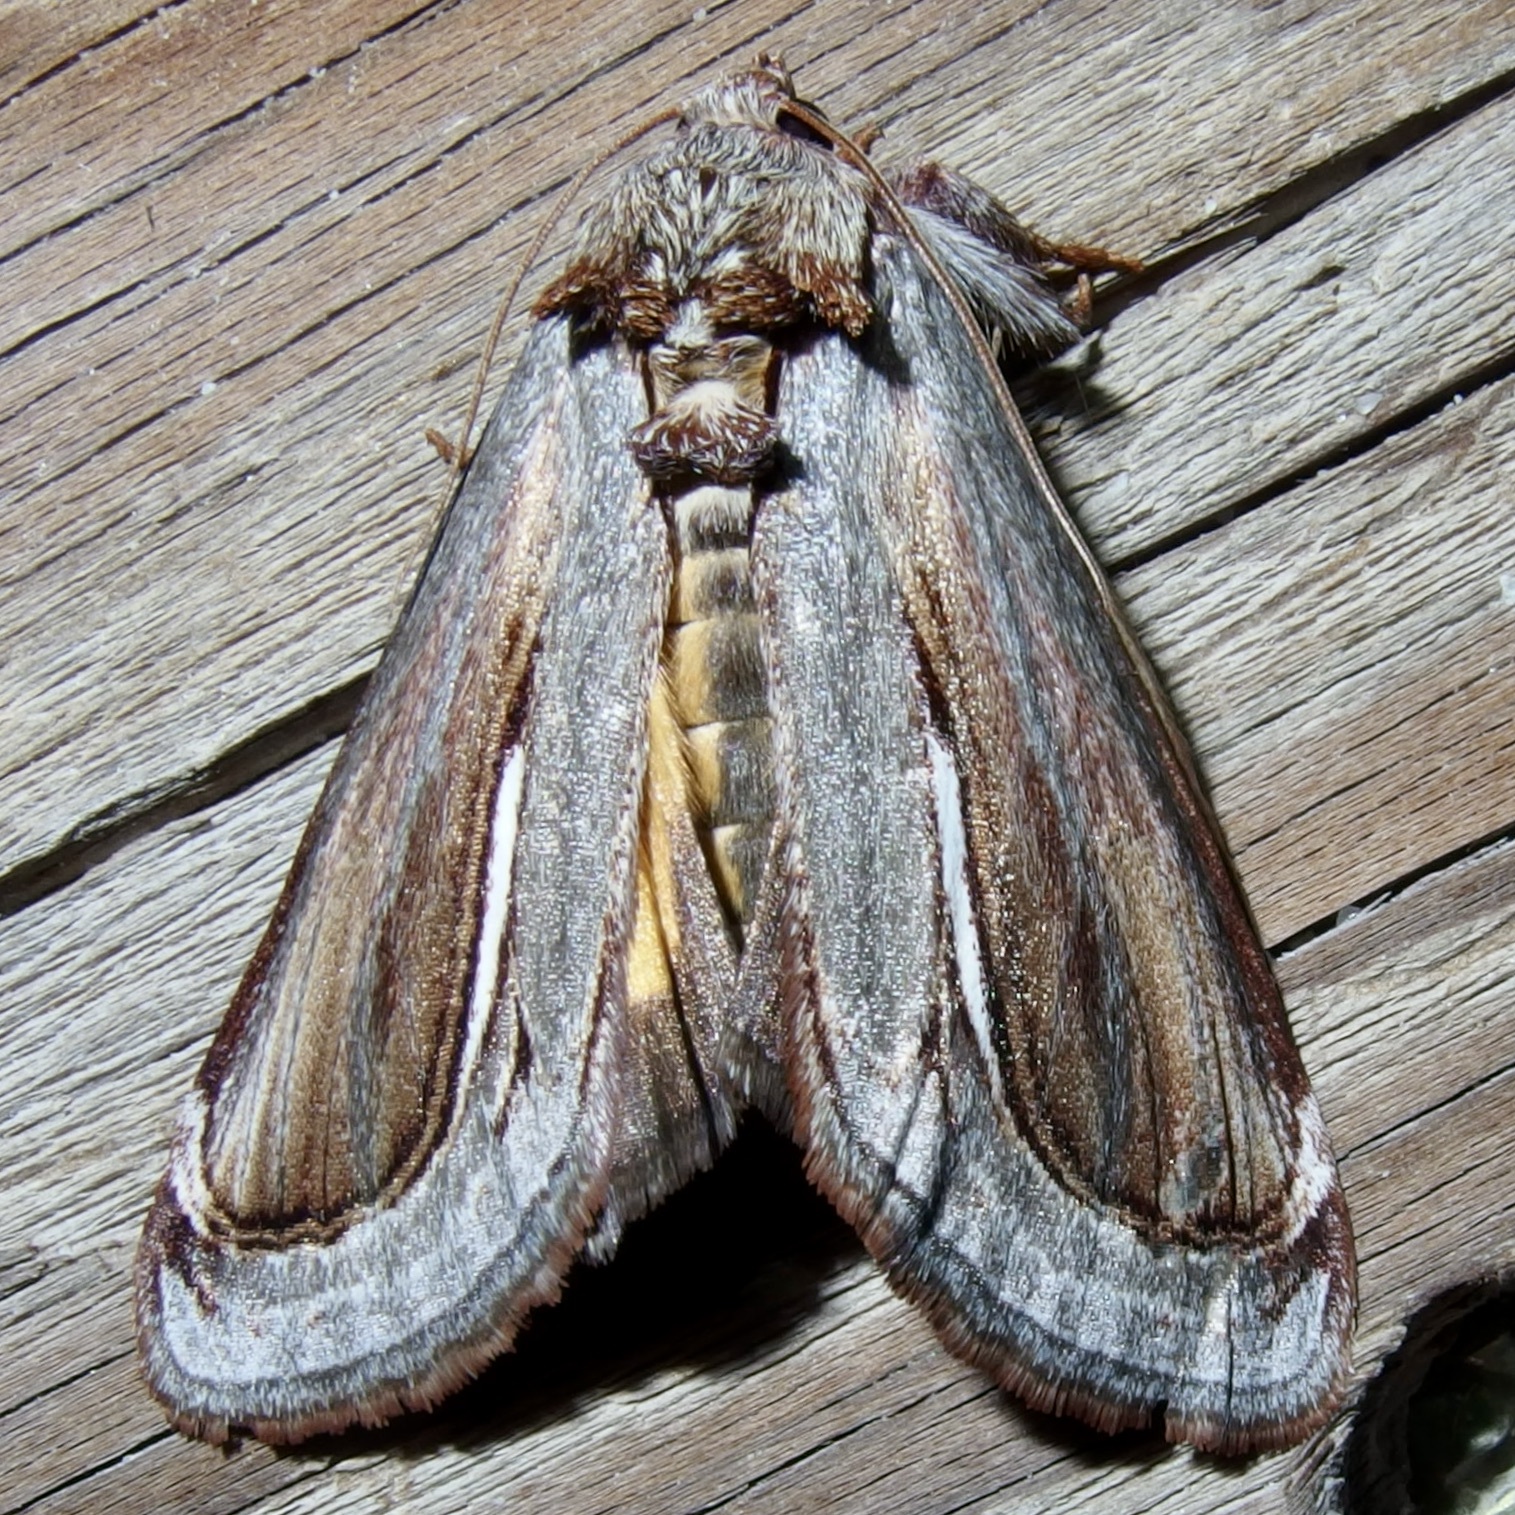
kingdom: Animalia
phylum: Arthropoda
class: Insecta
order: Lepidoptera
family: Noctuidae
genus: Gerrodes
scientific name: Gerrodes minatea
